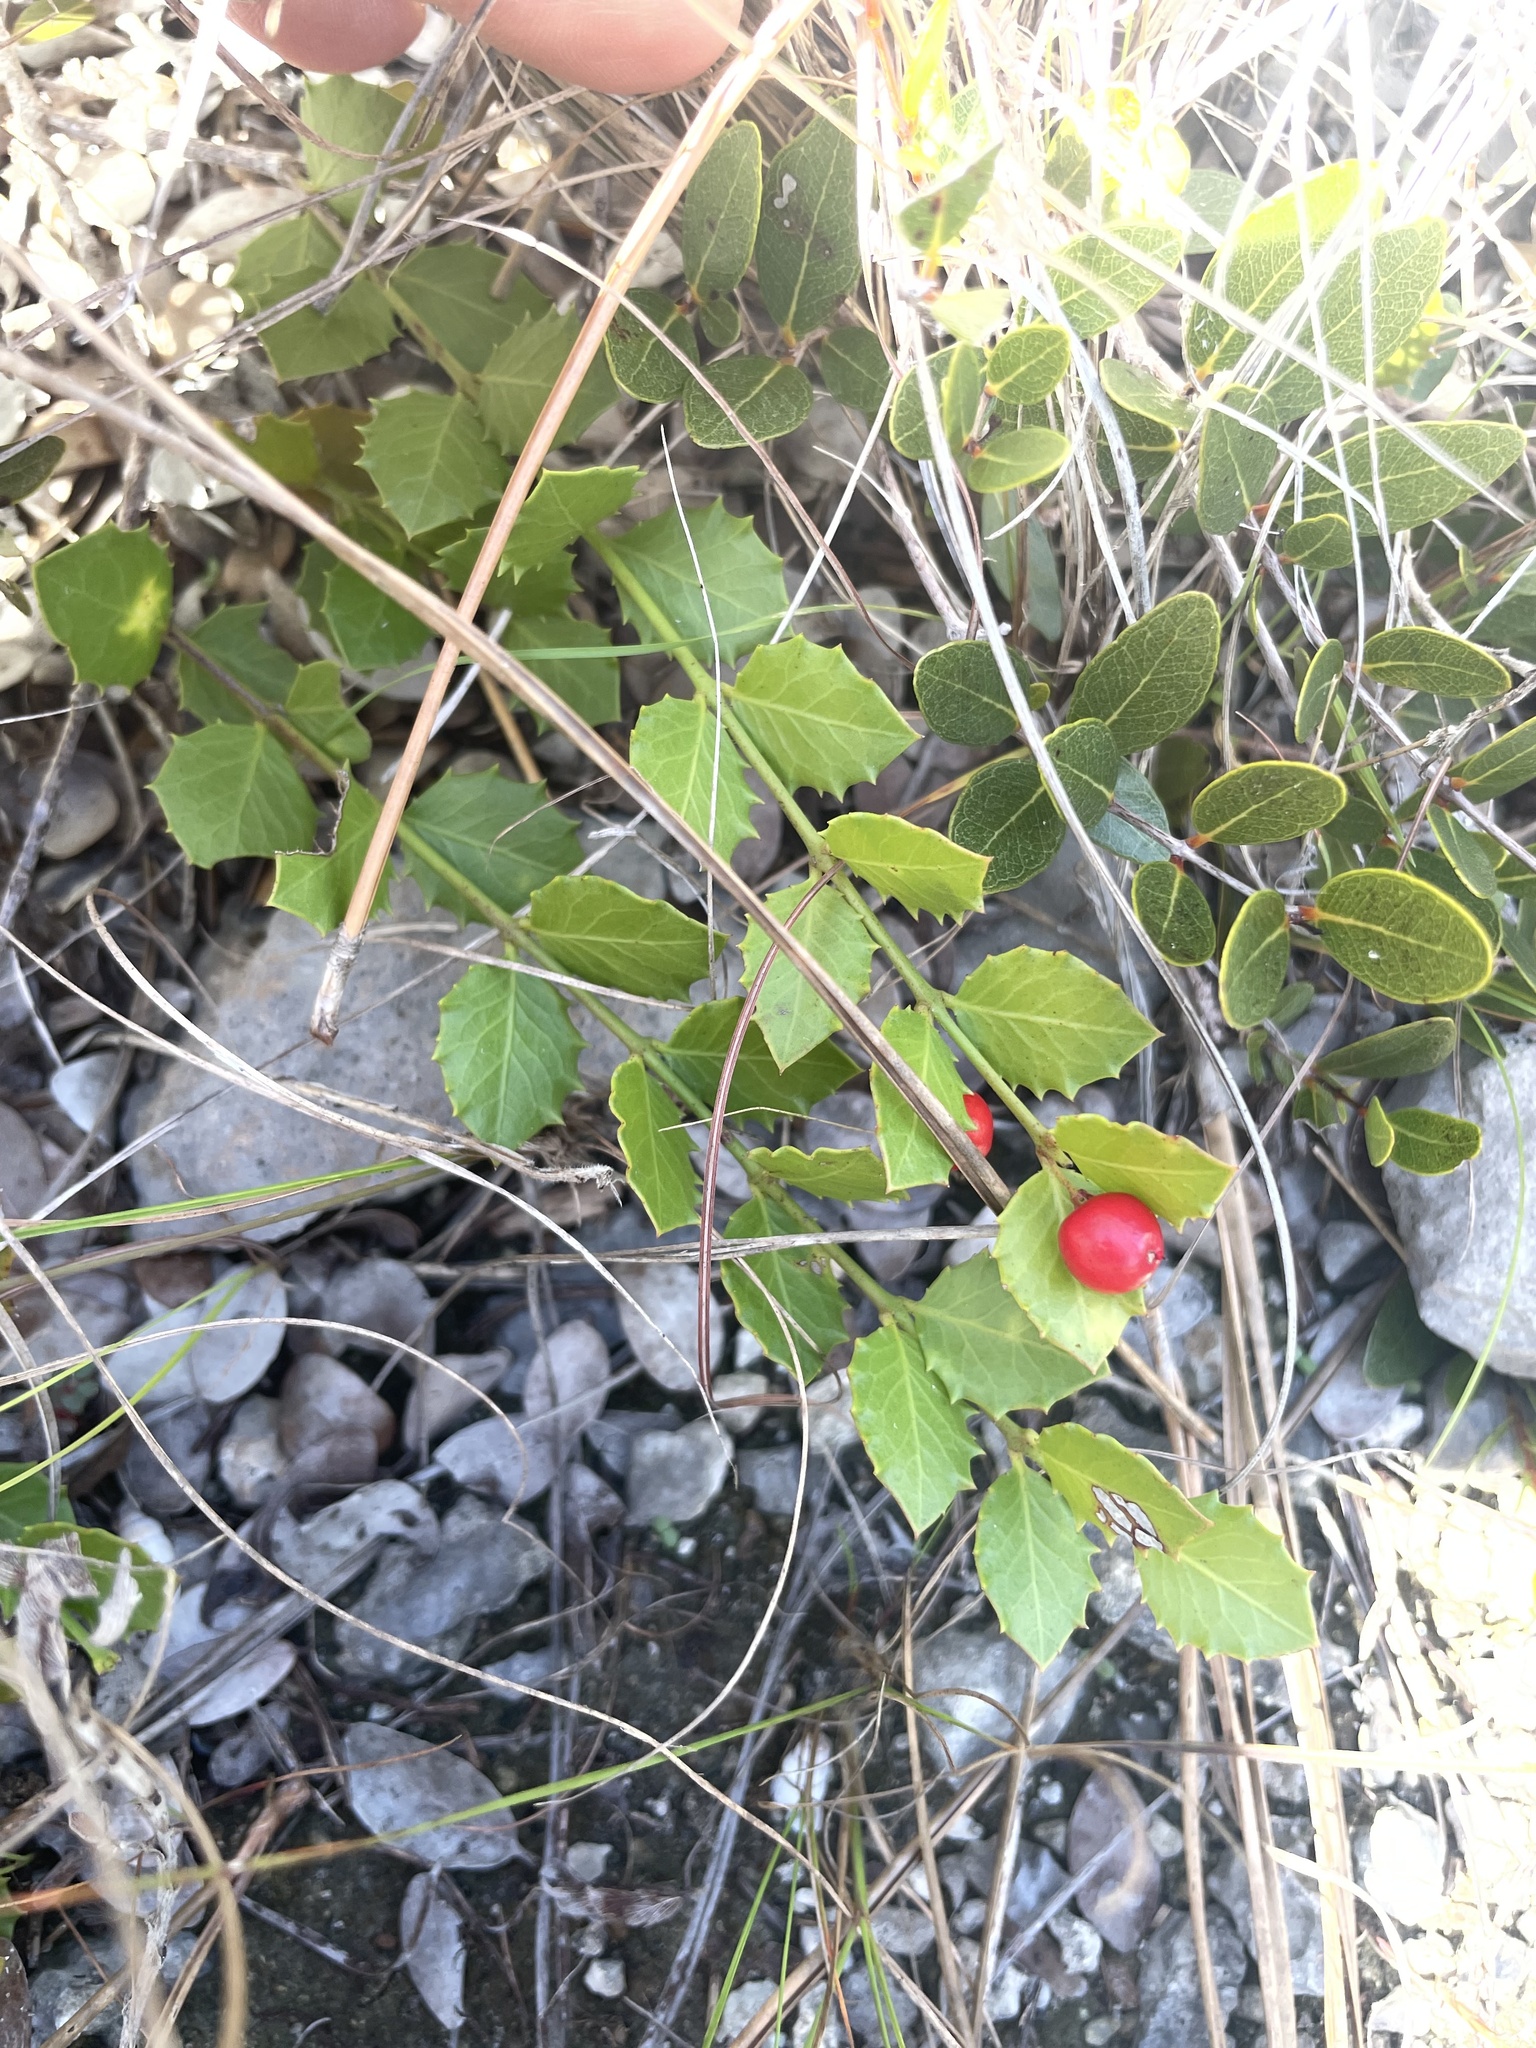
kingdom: Plantae
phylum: Tracheophyta
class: Magnoliopsida
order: Celastrales
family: Celastraceae
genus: Crossopetalum
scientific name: Crossopetalum ilicifolium
